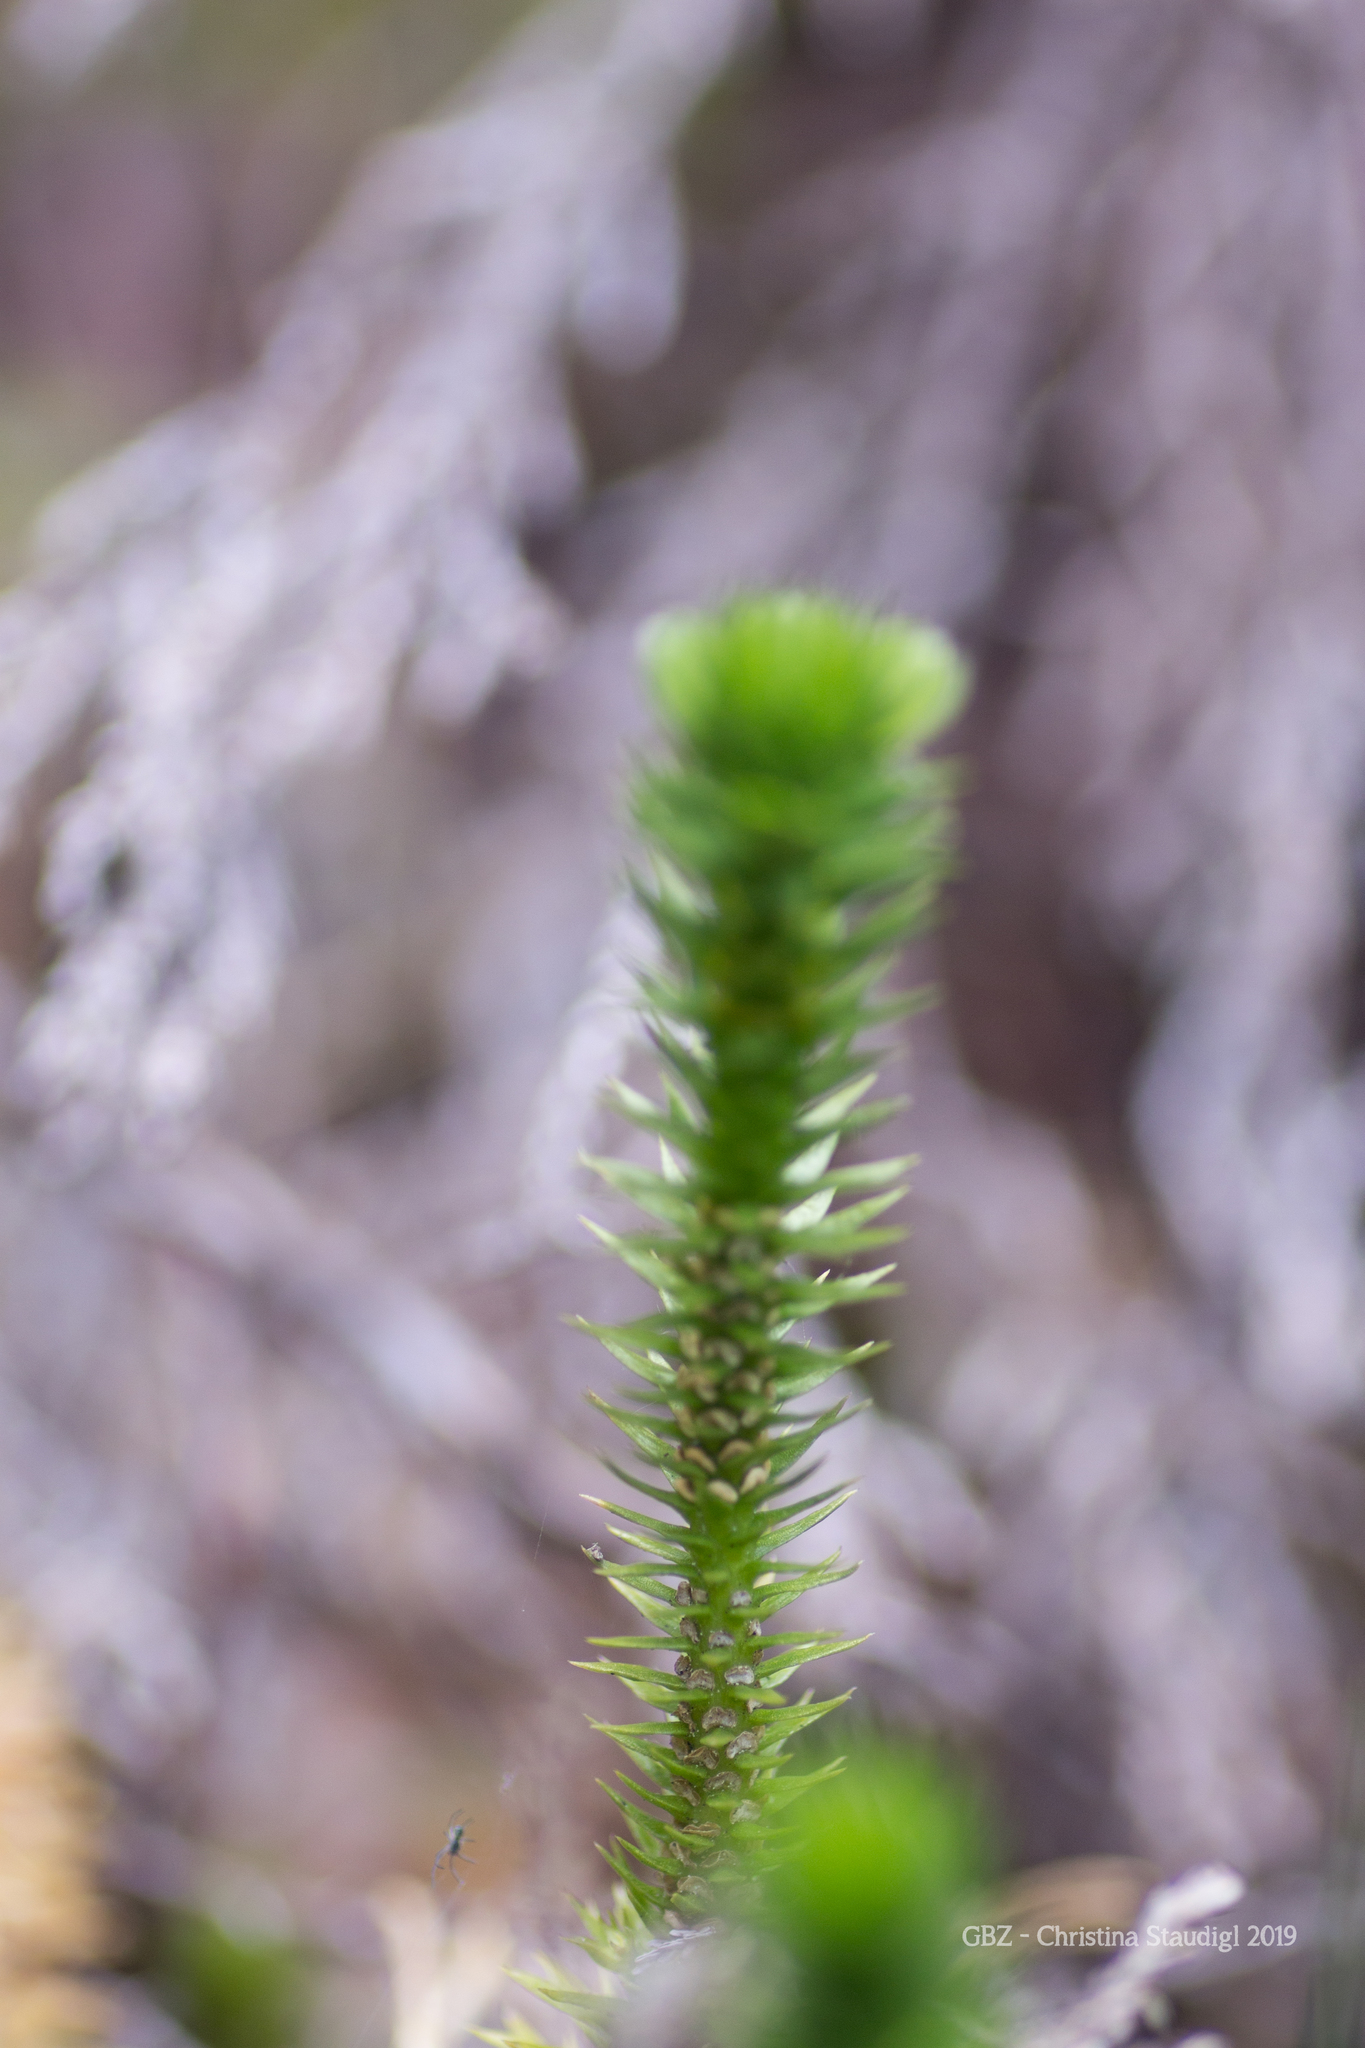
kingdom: Plantae
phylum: Tracheophyta
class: Lycopodiopsida
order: Lycopodiales
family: Lycopodiaceae
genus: Huperzia
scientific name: Huperzia selago
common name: Northern firmoss
